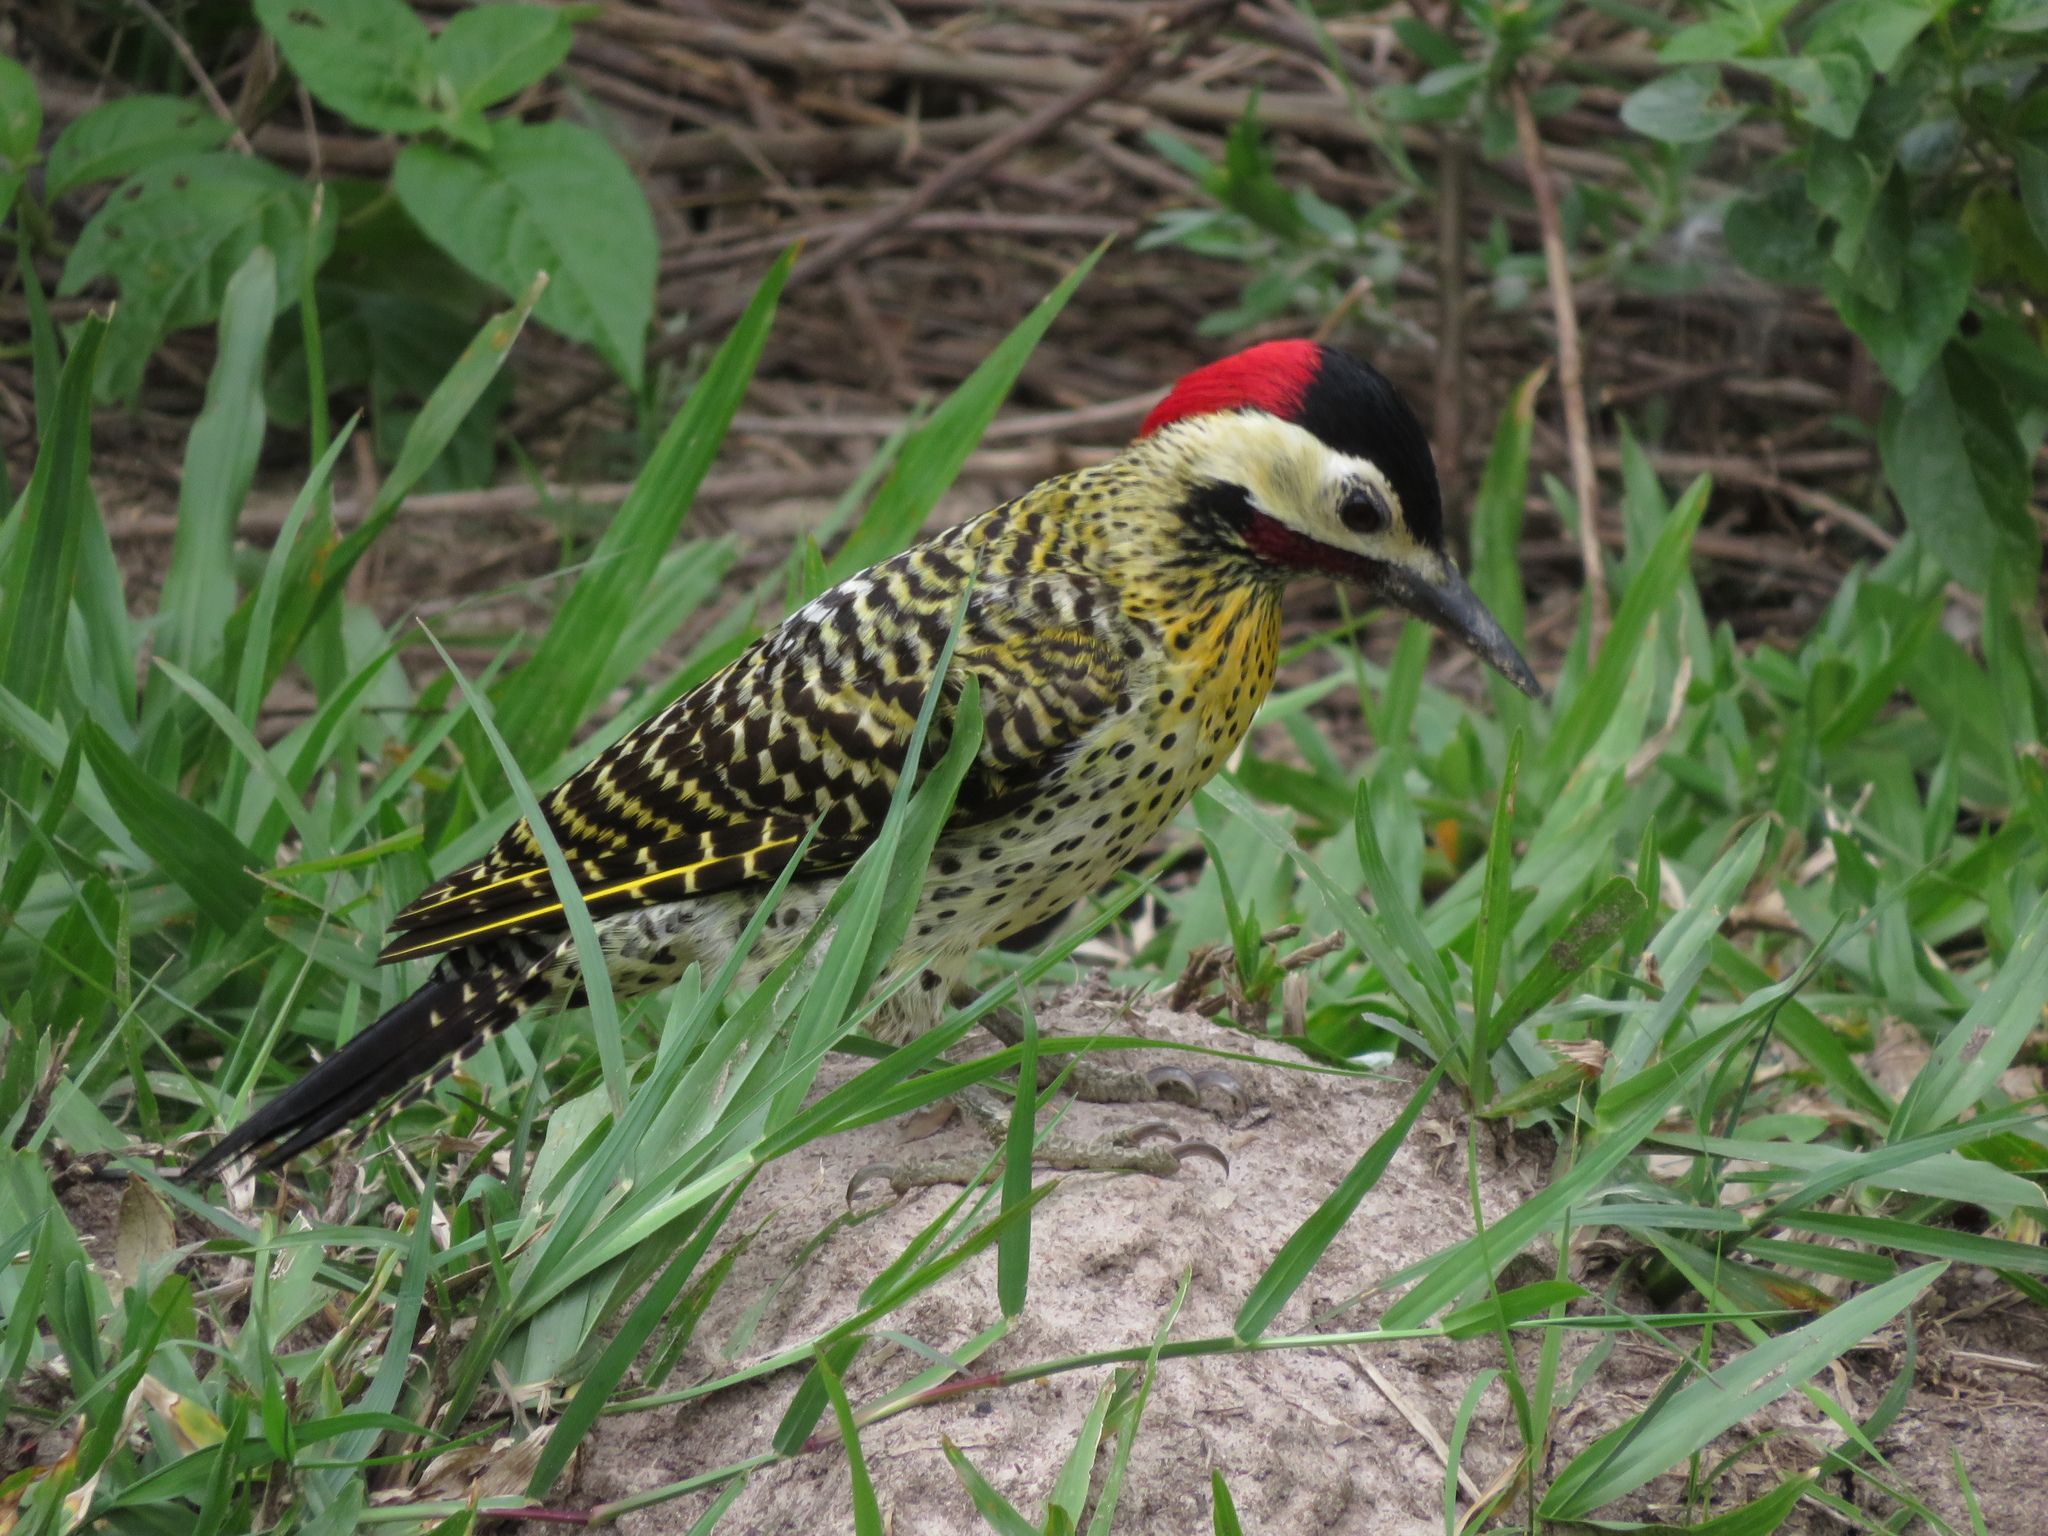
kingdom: Animalia
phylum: Chordata
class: Aves
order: Piciformes
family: Picidae
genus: Colaptes
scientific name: Colaptes melanochloros
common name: Green-barred woodpecker
